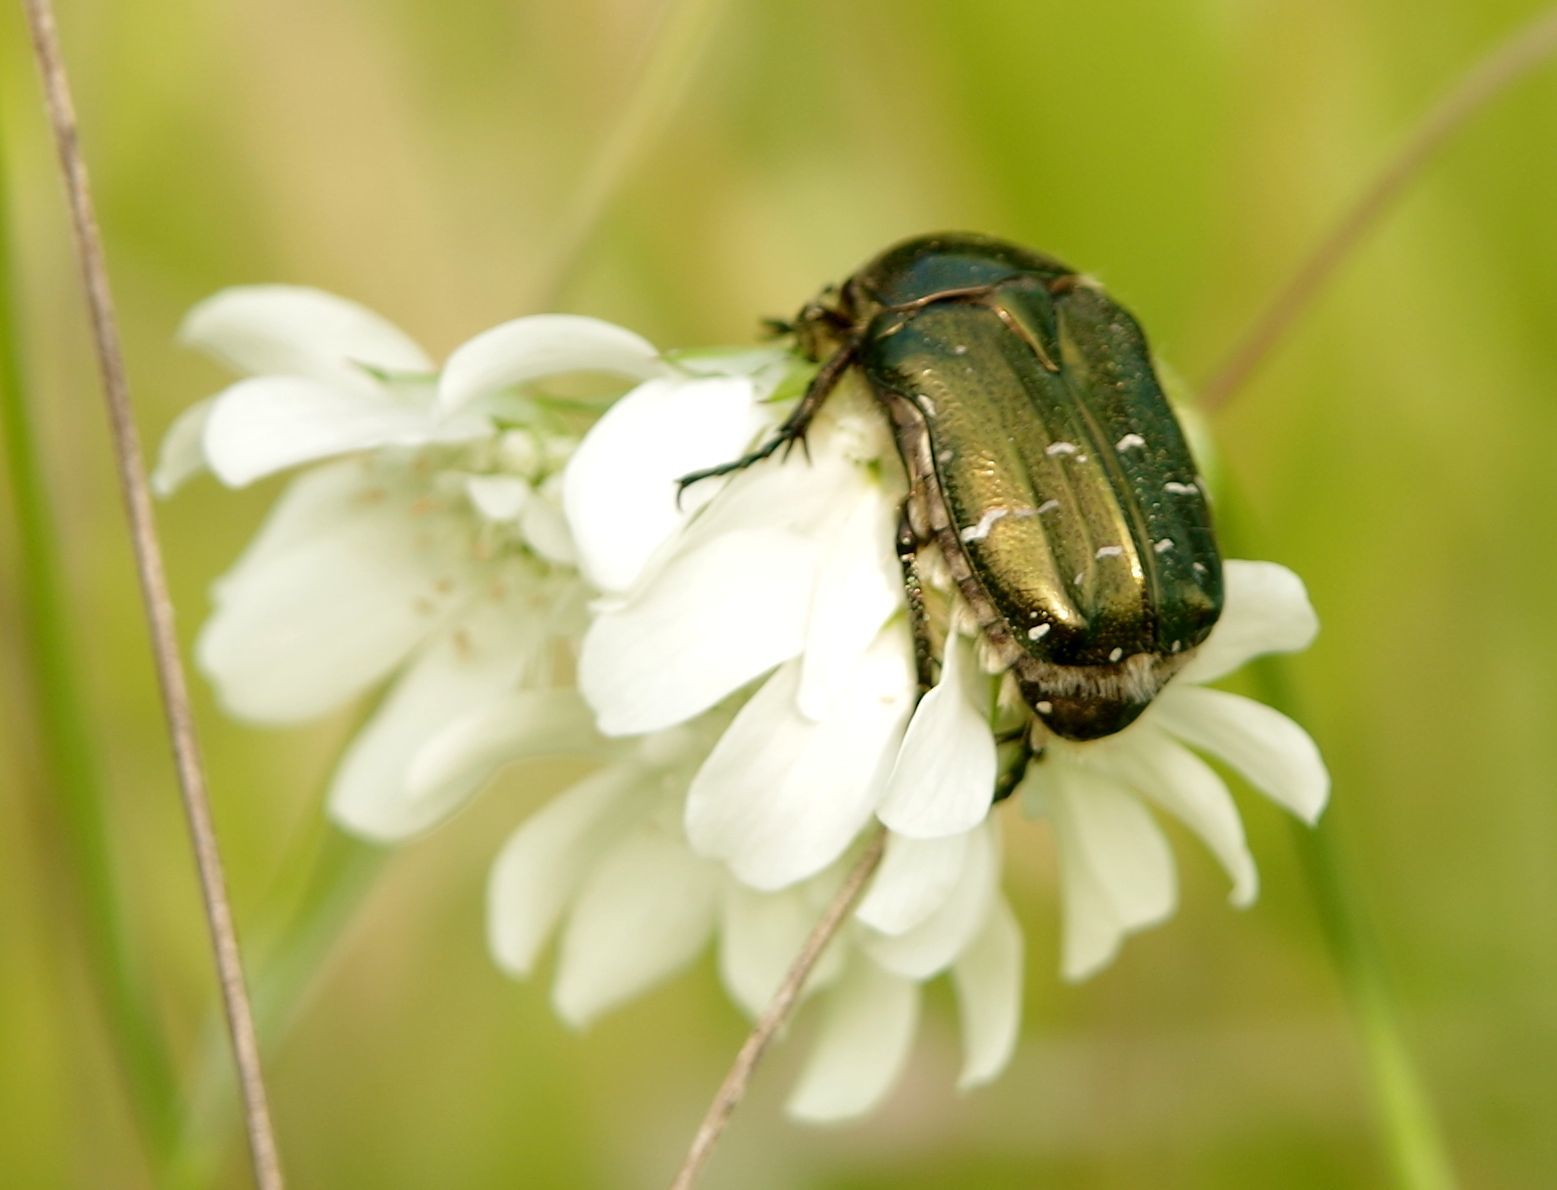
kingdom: Animalia
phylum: Arthropoda
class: Insecta
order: Coleoptera
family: Scarabaeidae
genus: Cetonia
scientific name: Cetonia aurata
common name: Rose chafer
